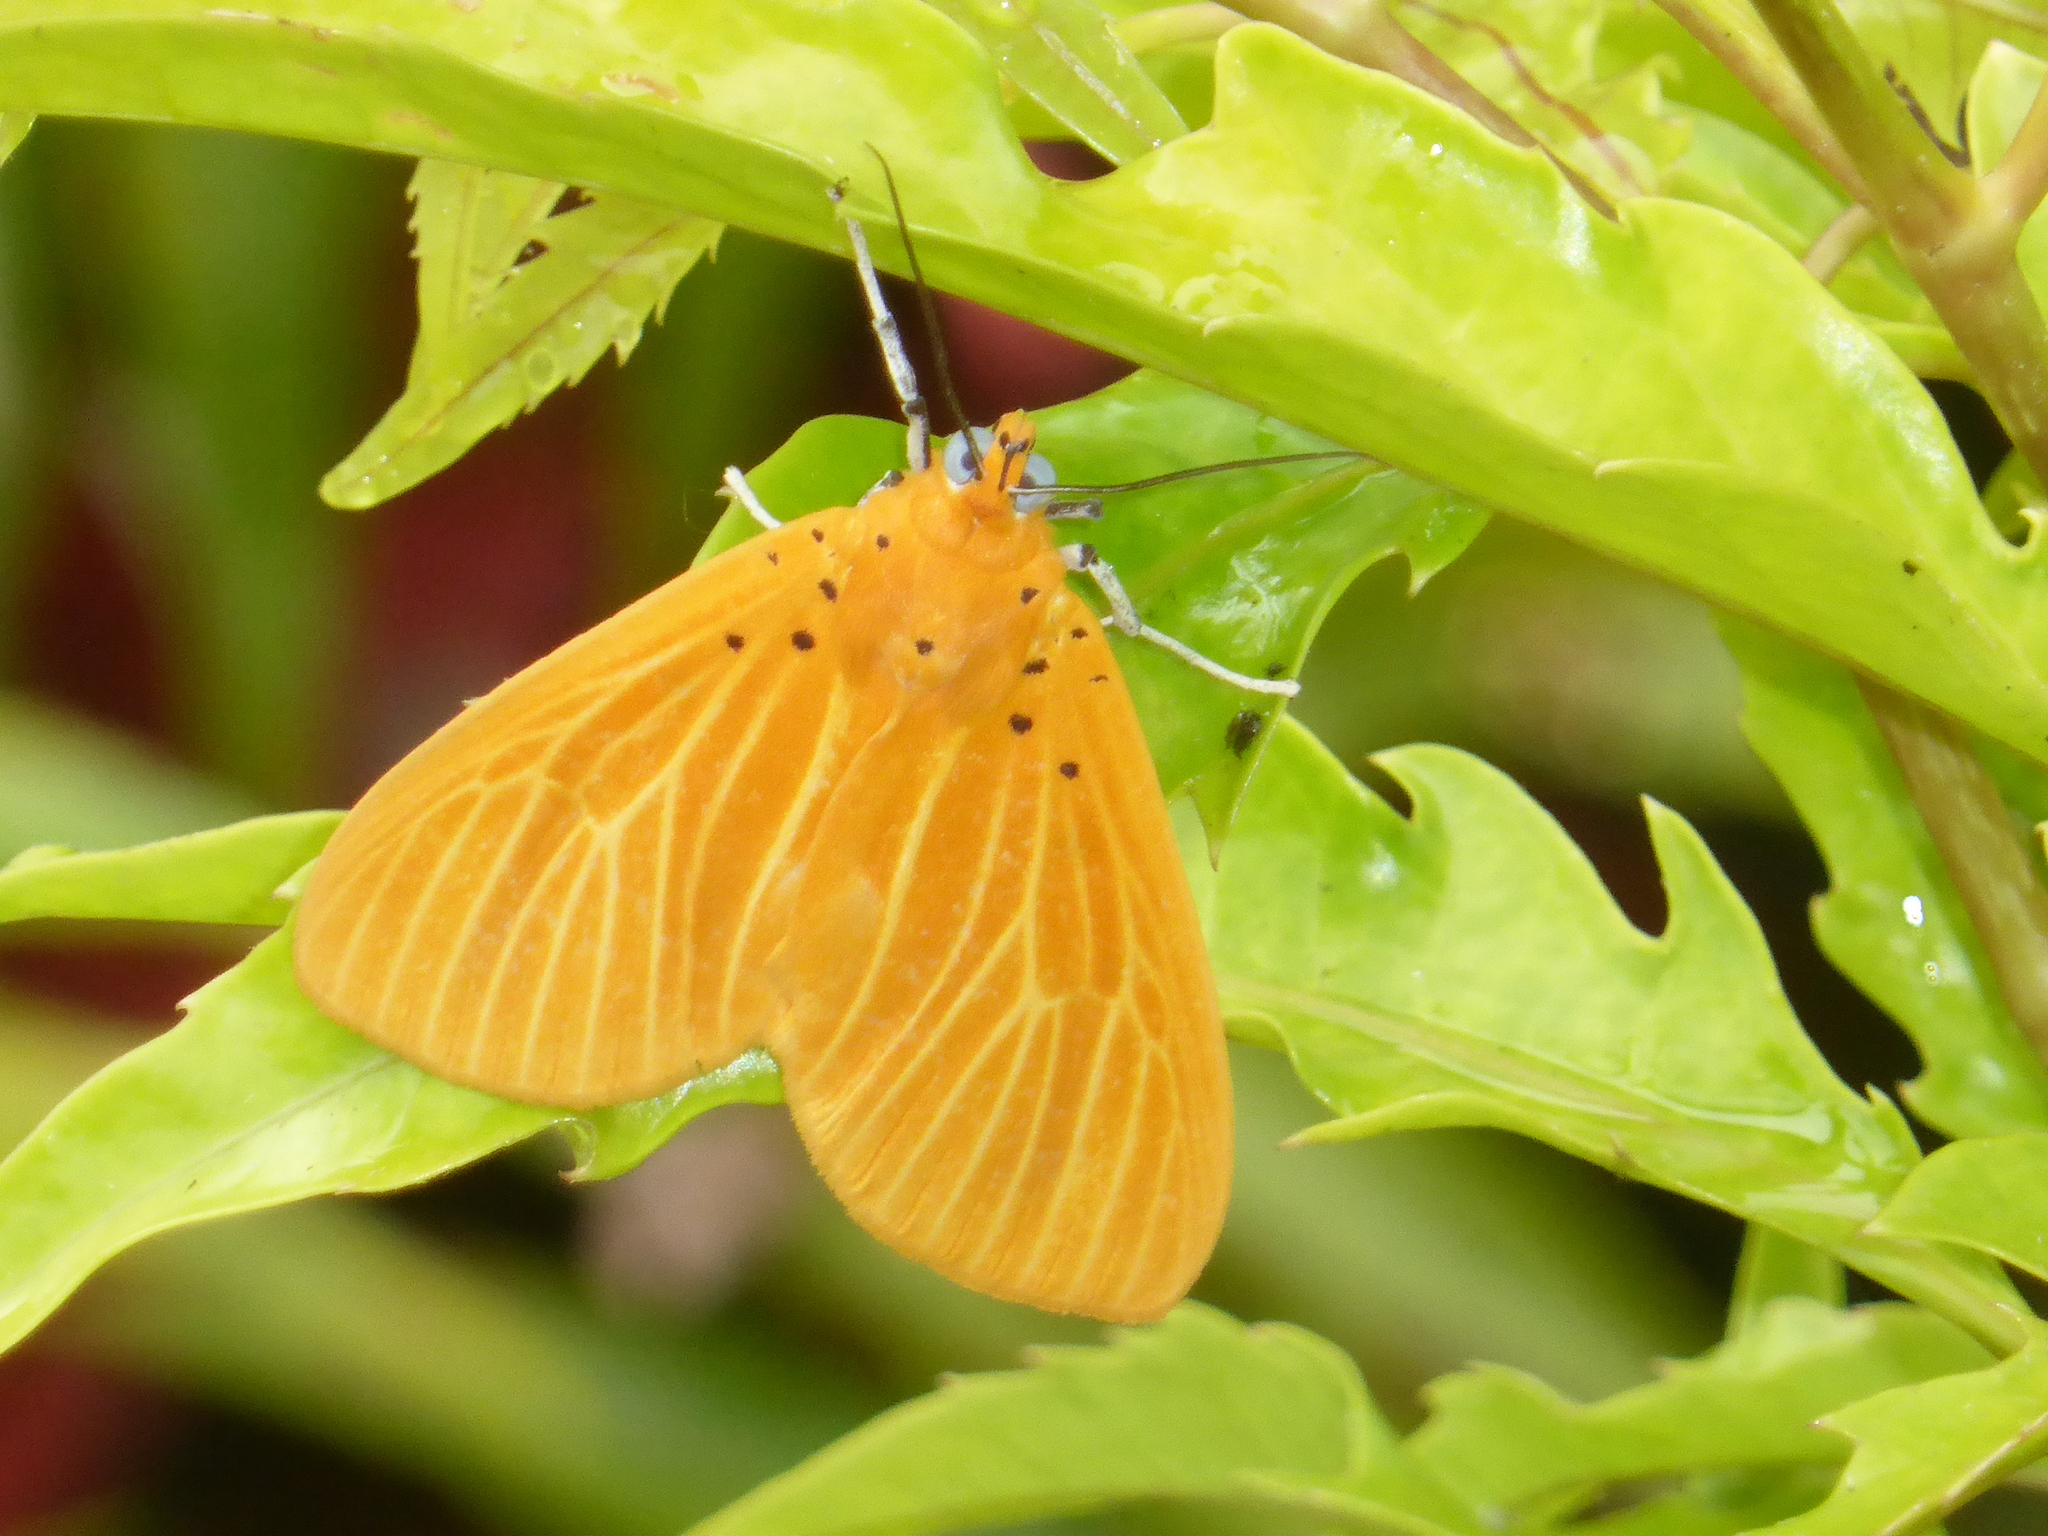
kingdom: Animalia
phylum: Arthropoda
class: Insecta
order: Lepidoptera
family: Erebidae
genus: Asota
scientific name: Asota egens
